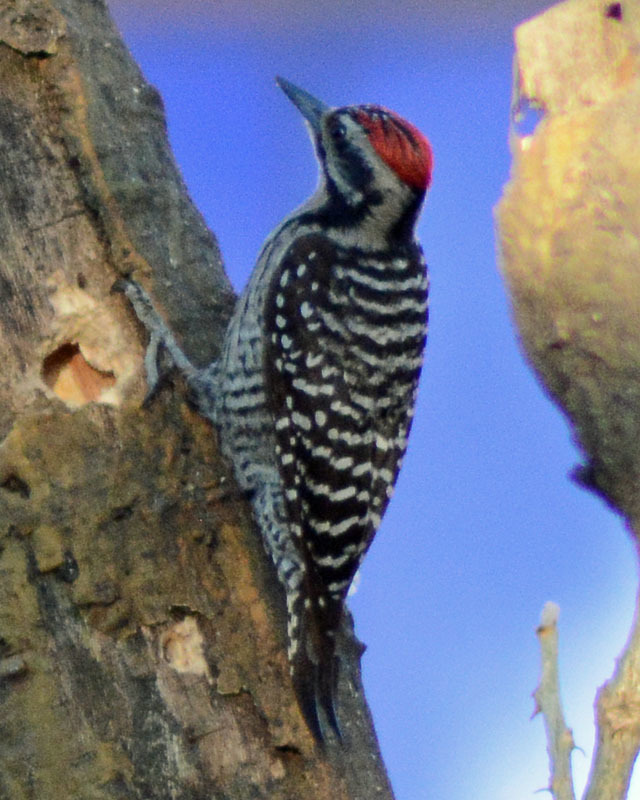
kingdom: Animalia
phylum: Chordata
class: Aves
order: Piciformes
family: Picidae
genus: Dryobates
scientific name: Dryobates scalaris
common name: Ladder-backed woodpecker
